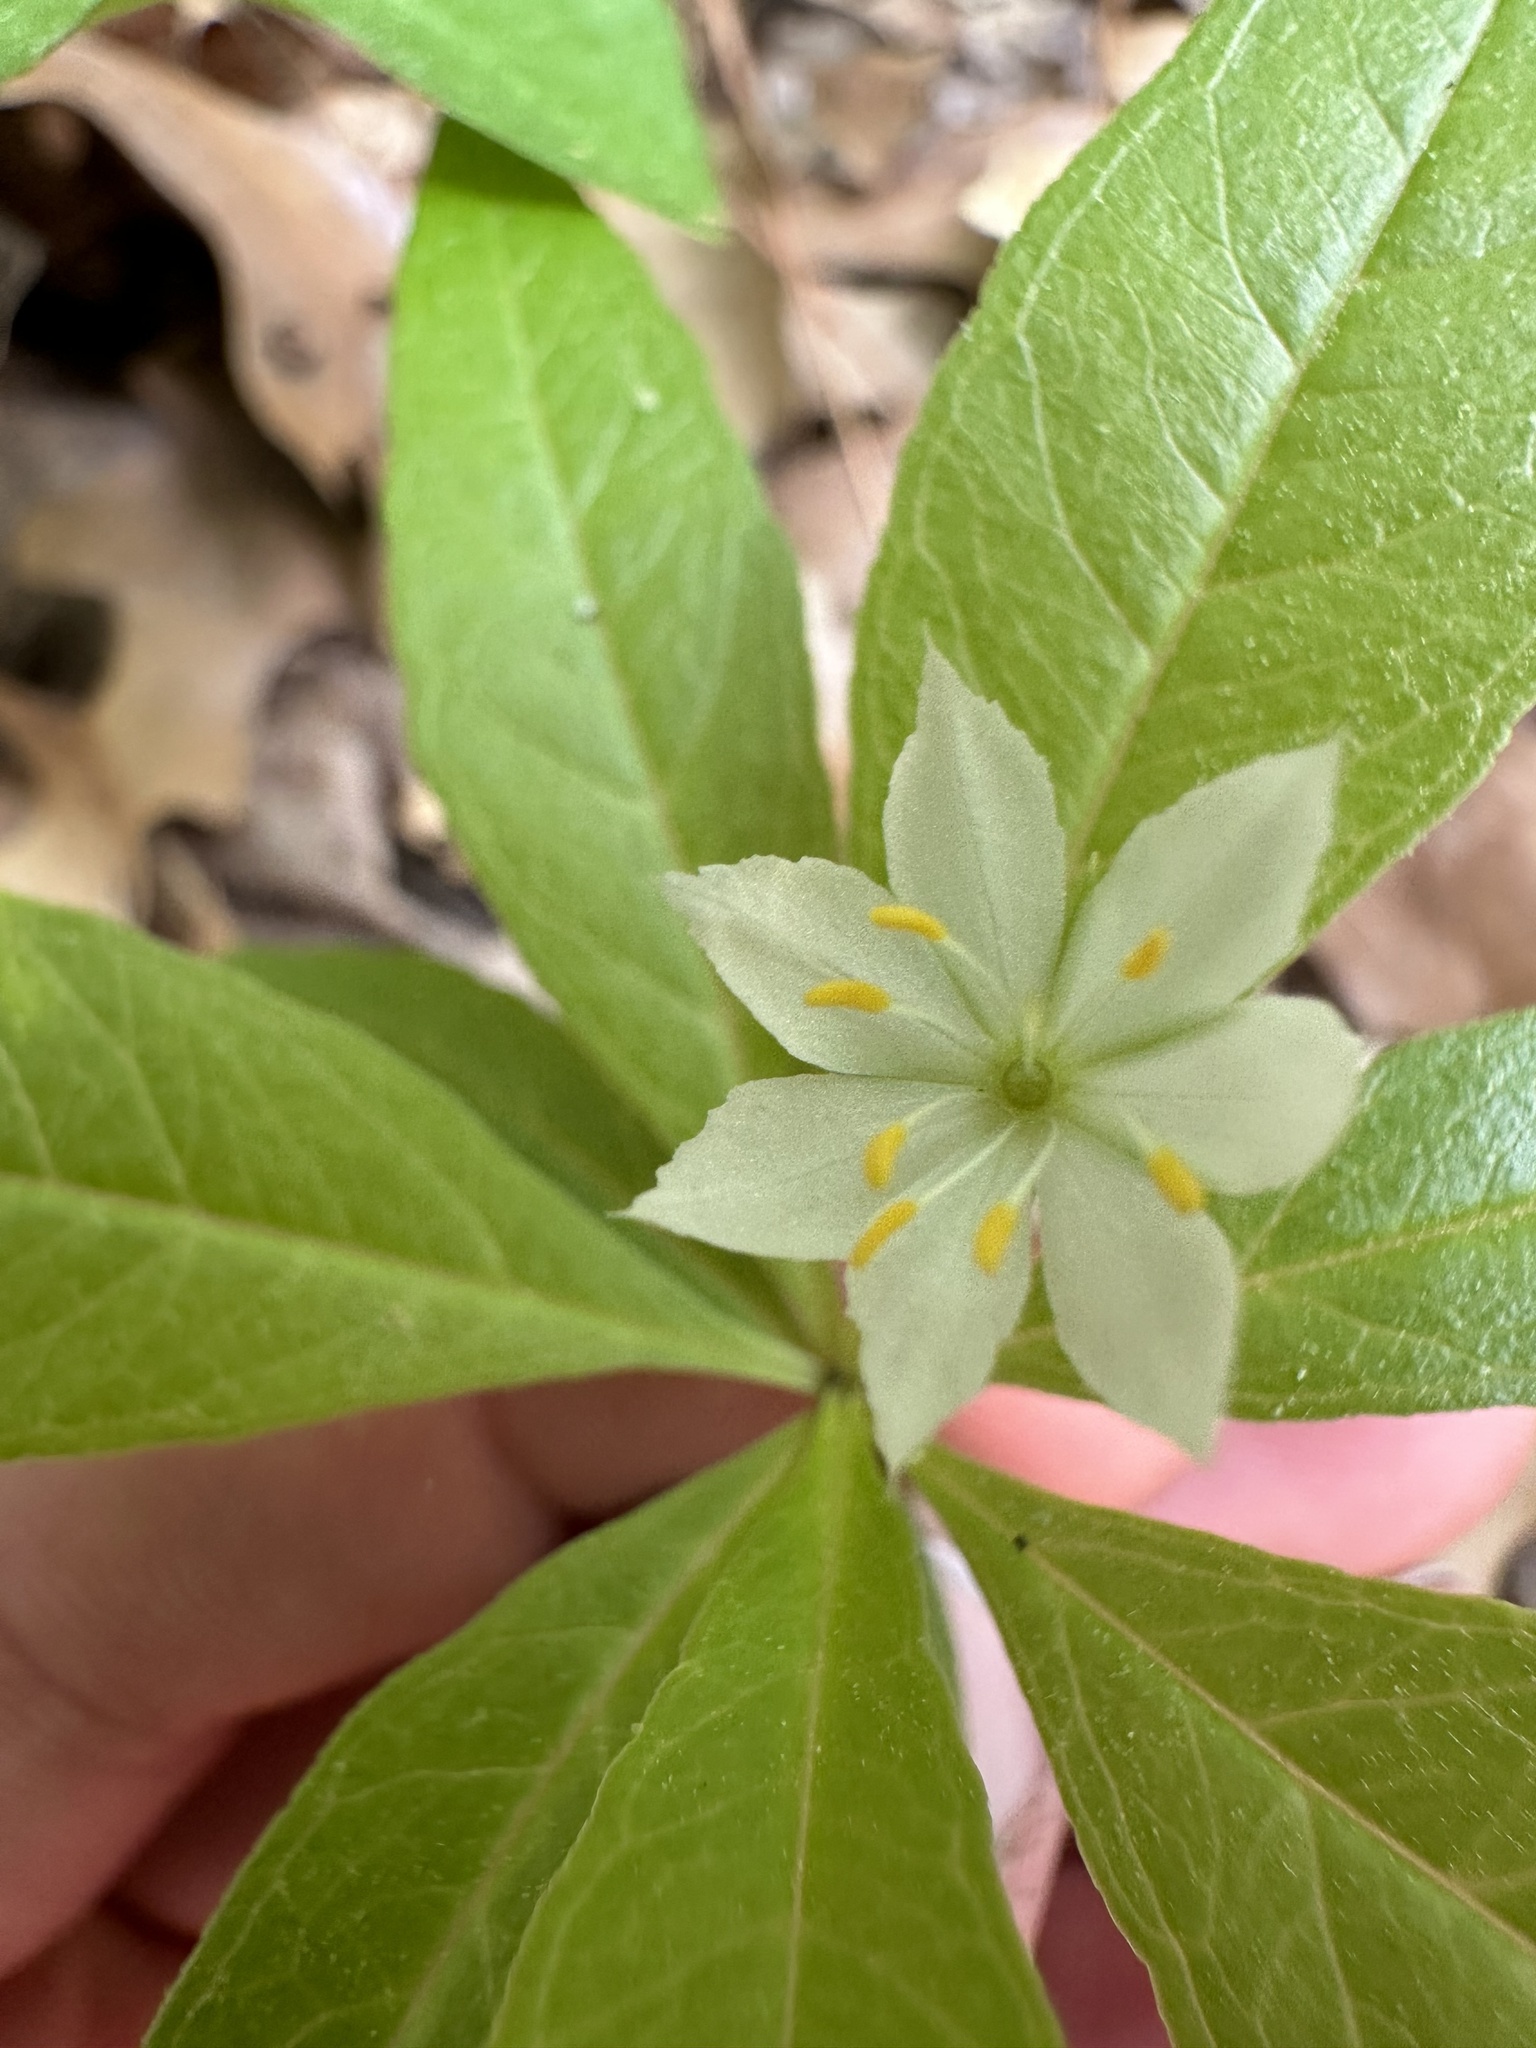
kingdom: Plantae
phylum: Tracheophyta
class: Magnoliopsida
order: Ericales
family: Primulaceae
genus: Lysimachia
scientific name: Lysimachia borealis
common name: American starflower
